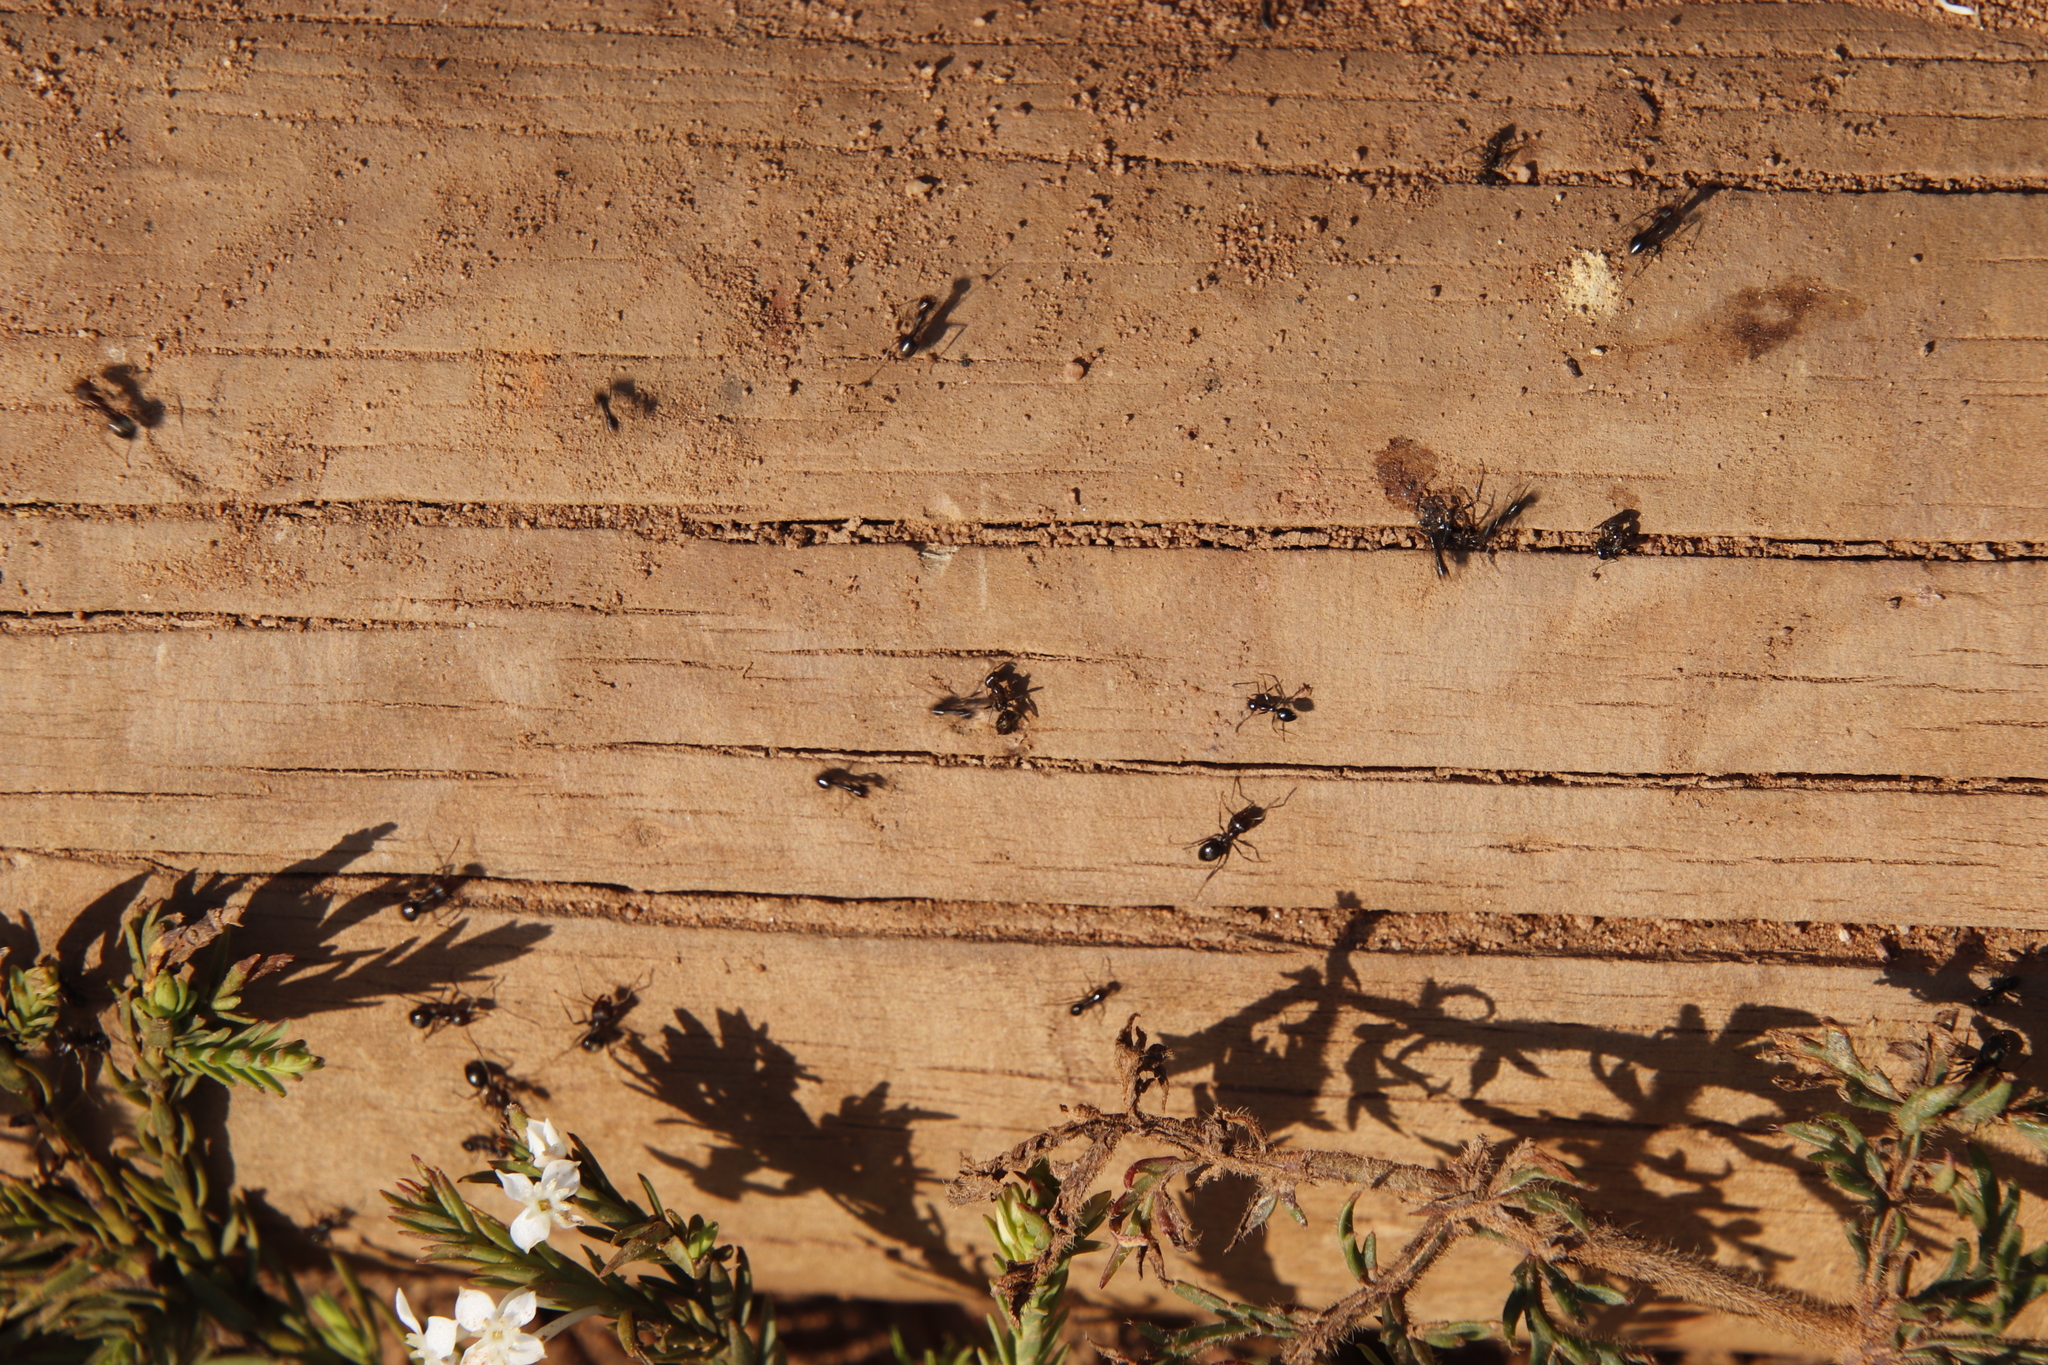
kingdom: Animalia
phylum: Arthropoda
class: Insecta
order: Hymenoptera
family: Formicidae
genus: Anoplolepis
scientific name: Anoplolepis steingroeveri
